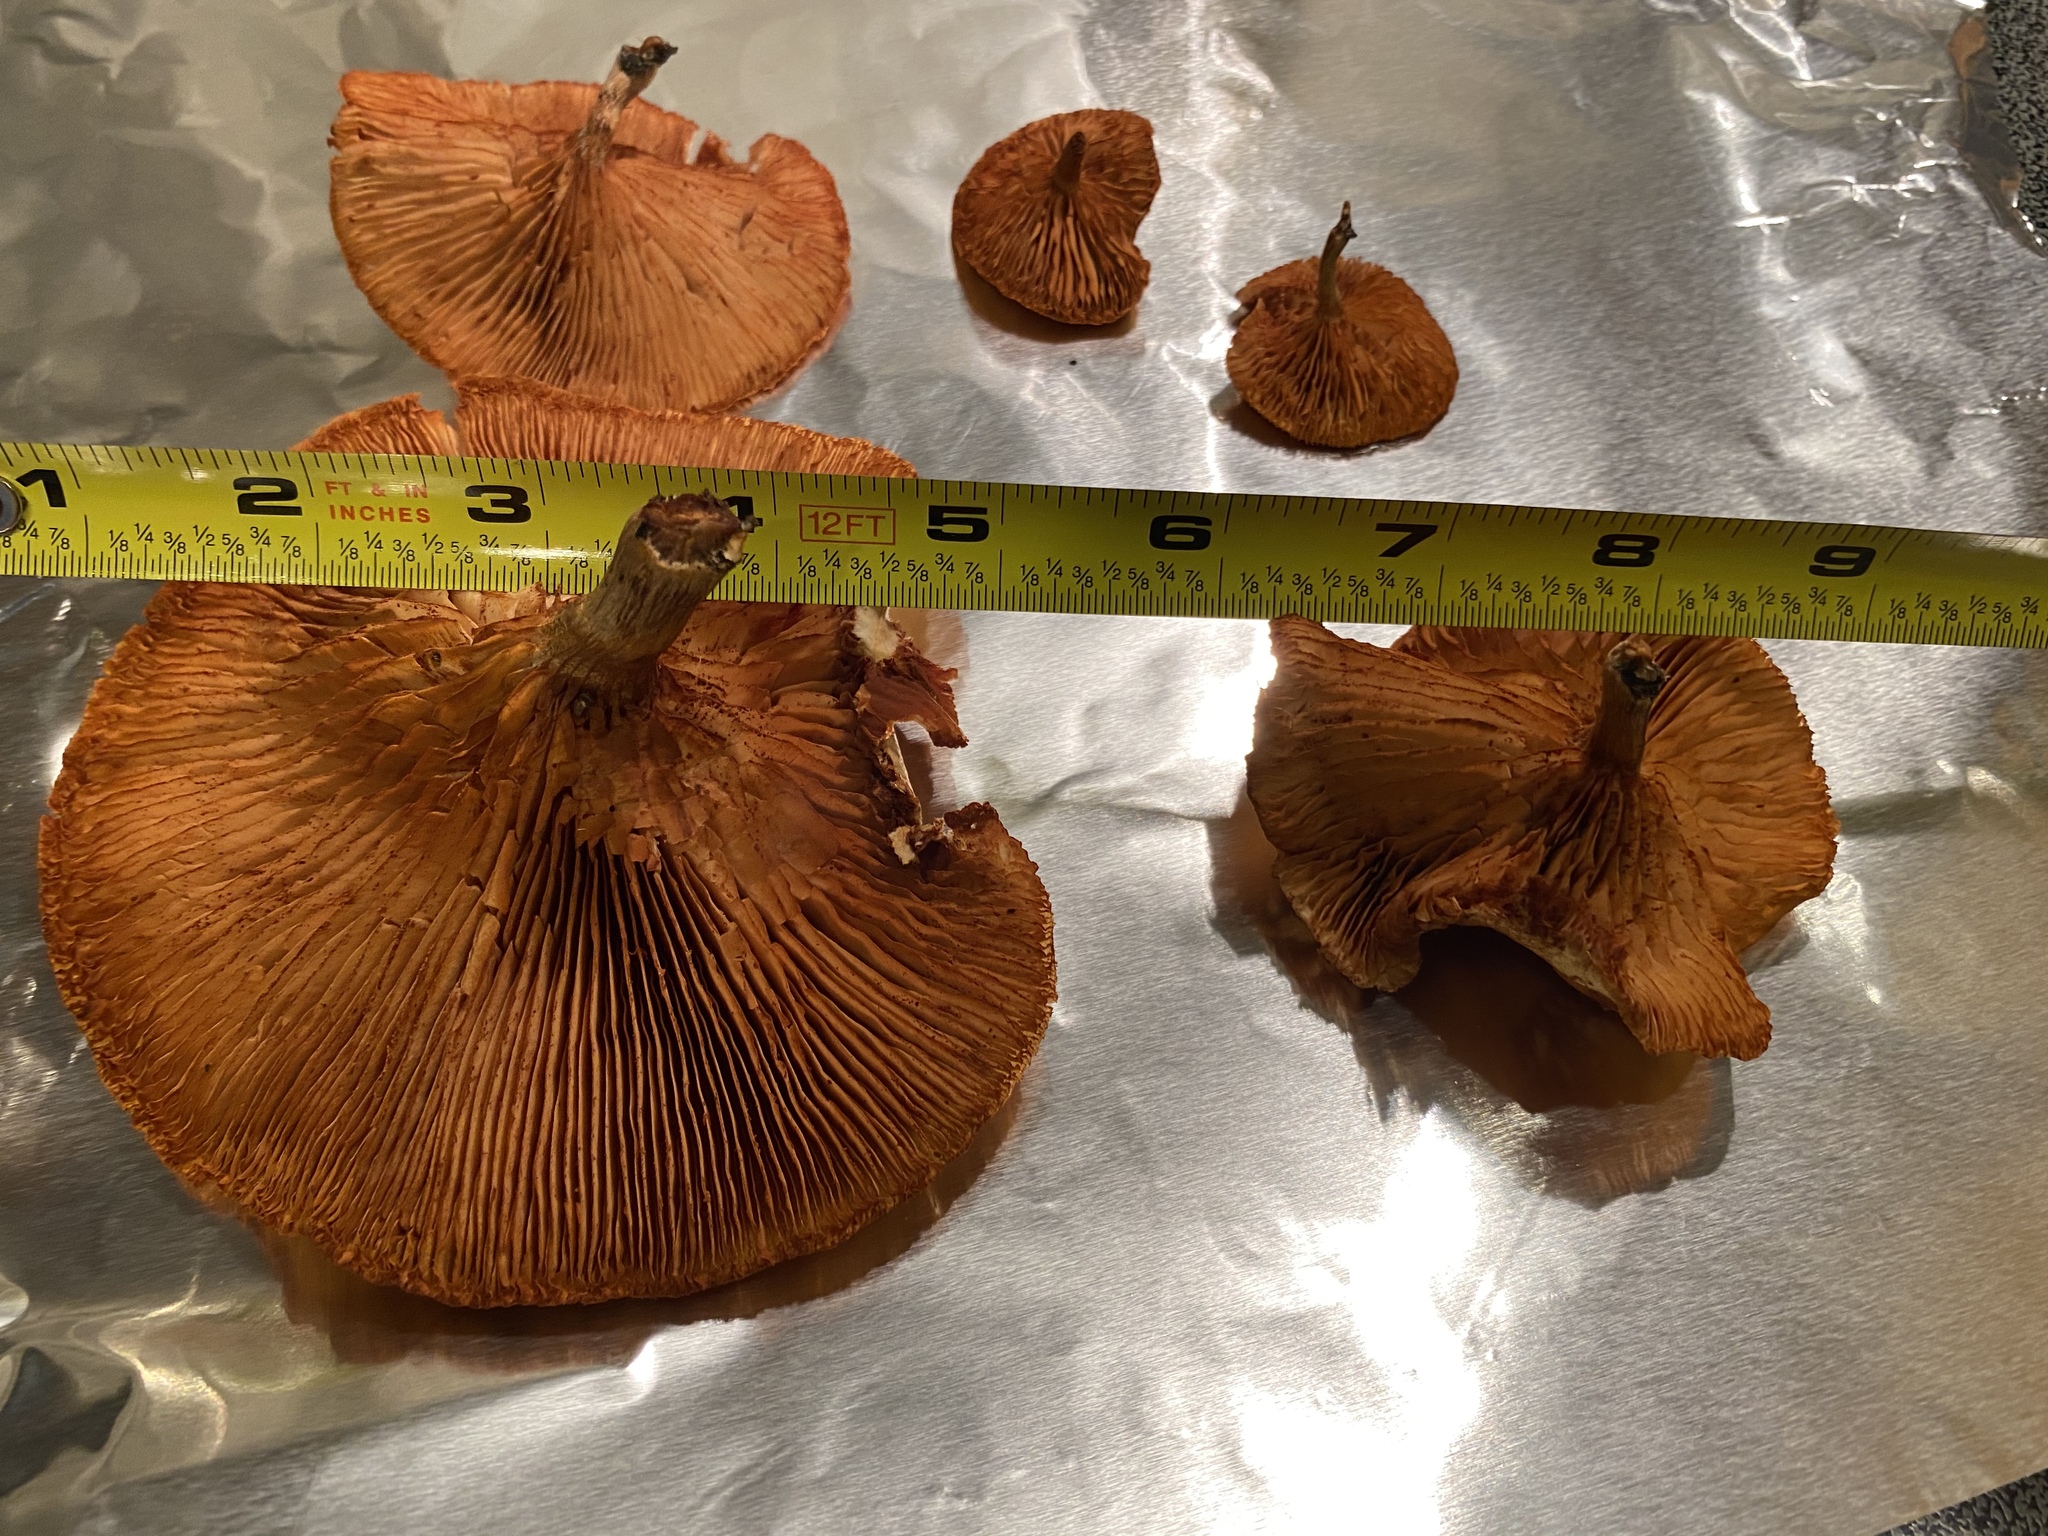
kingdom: Fungi
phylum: Basidiomycota
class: Agaricomycetes
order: Agaricales
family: Hymenogastraceae
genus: Gymnopilus
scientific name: Gymnopilus cyanopalmicola
